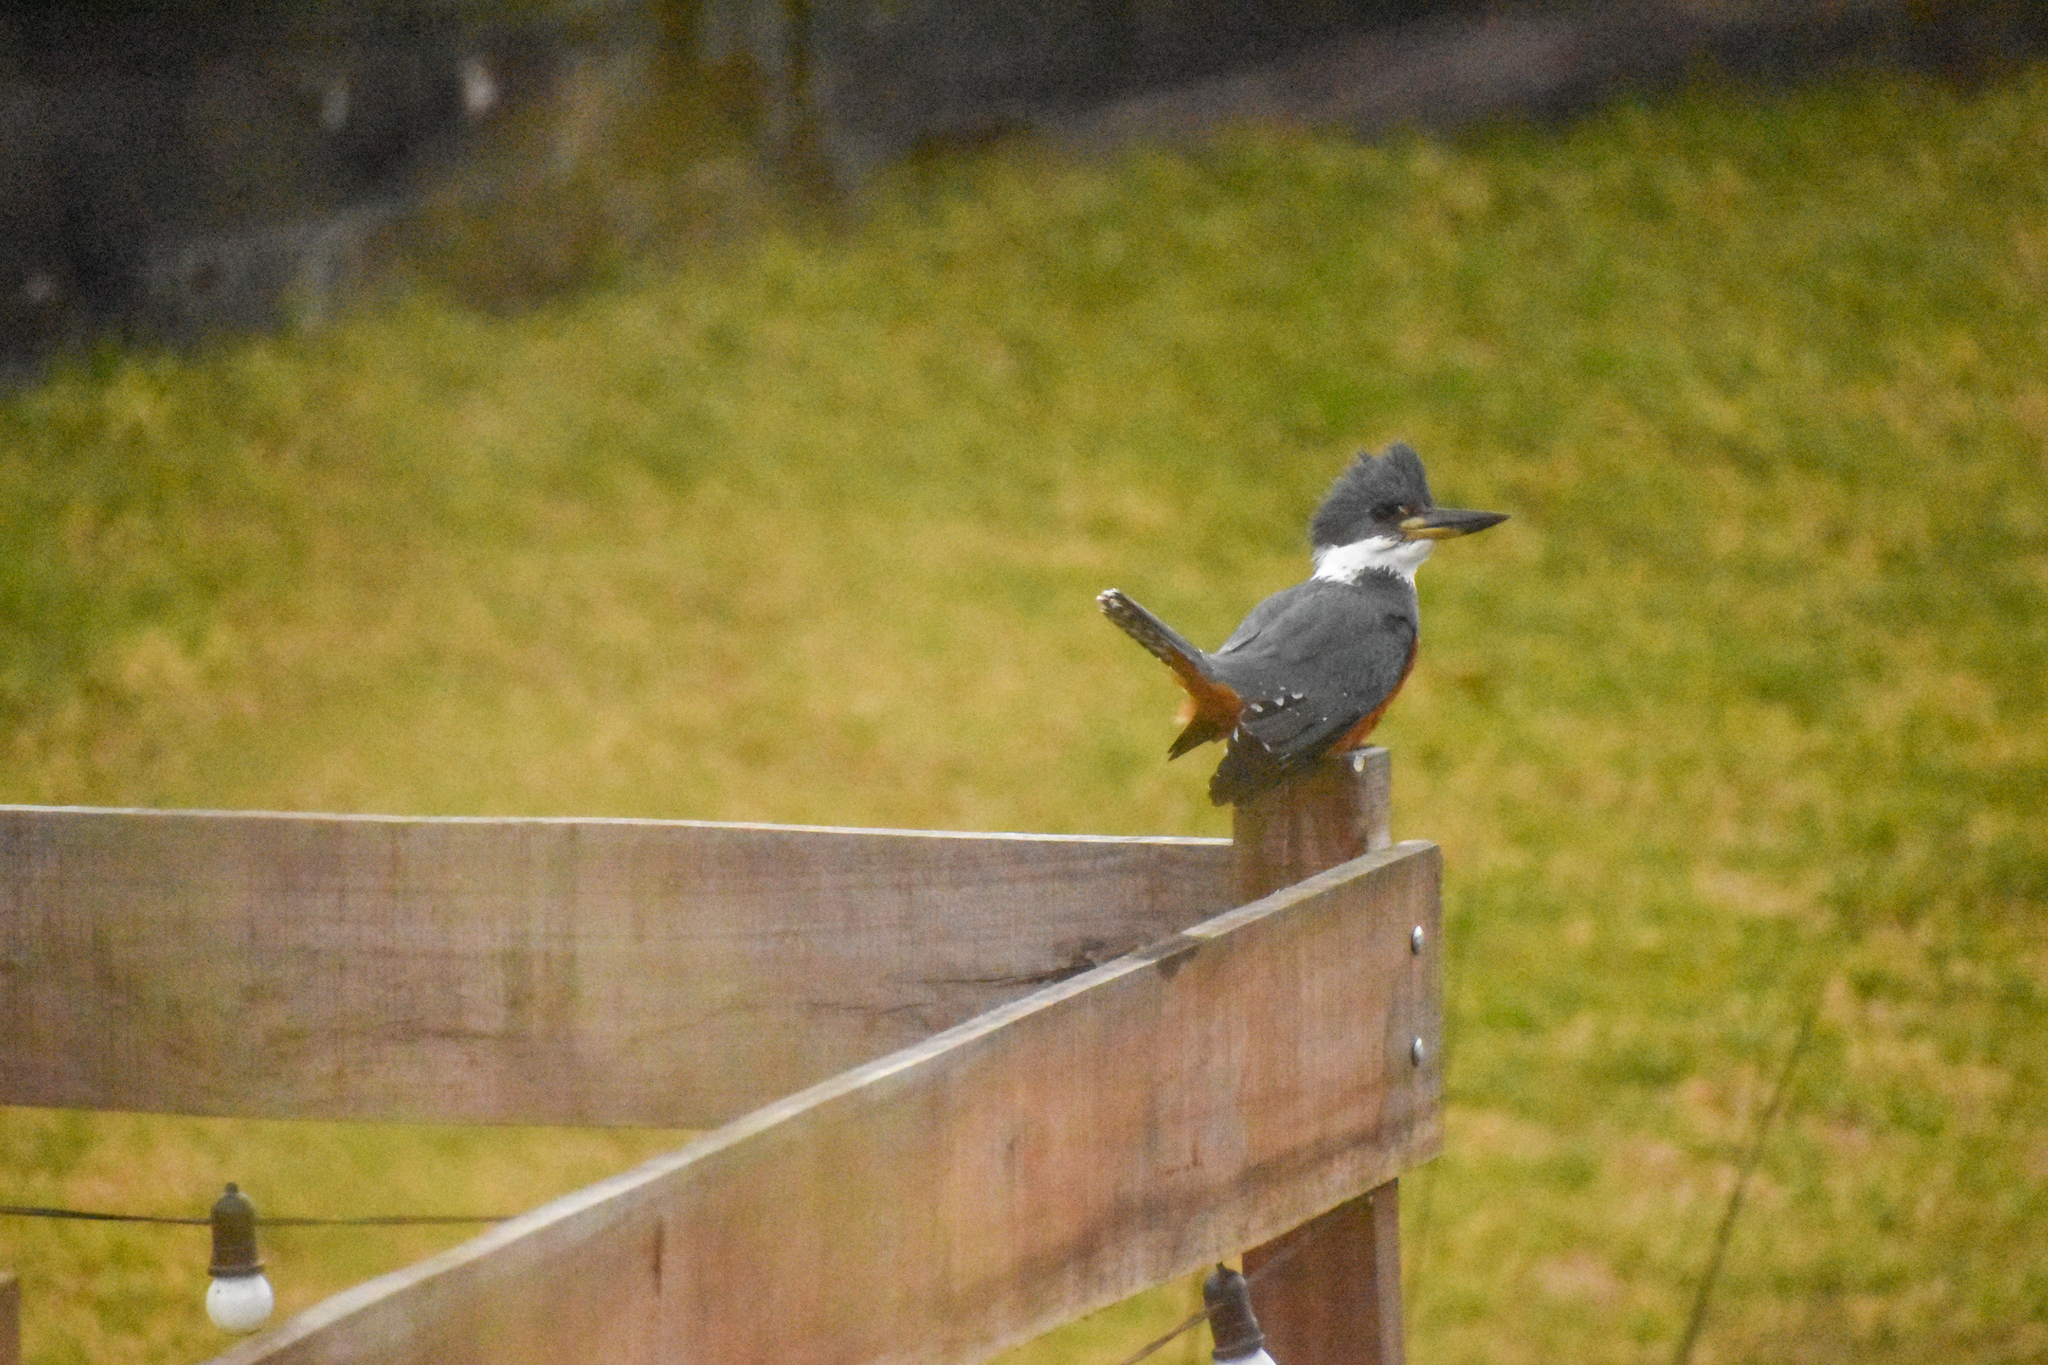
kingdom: Animalia
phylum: Chordata
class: Aves
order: Coraciiformes
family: Alcedinidae
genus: Megaceryle
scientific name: Megaceryle torquata
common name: Ringed kingfisher
